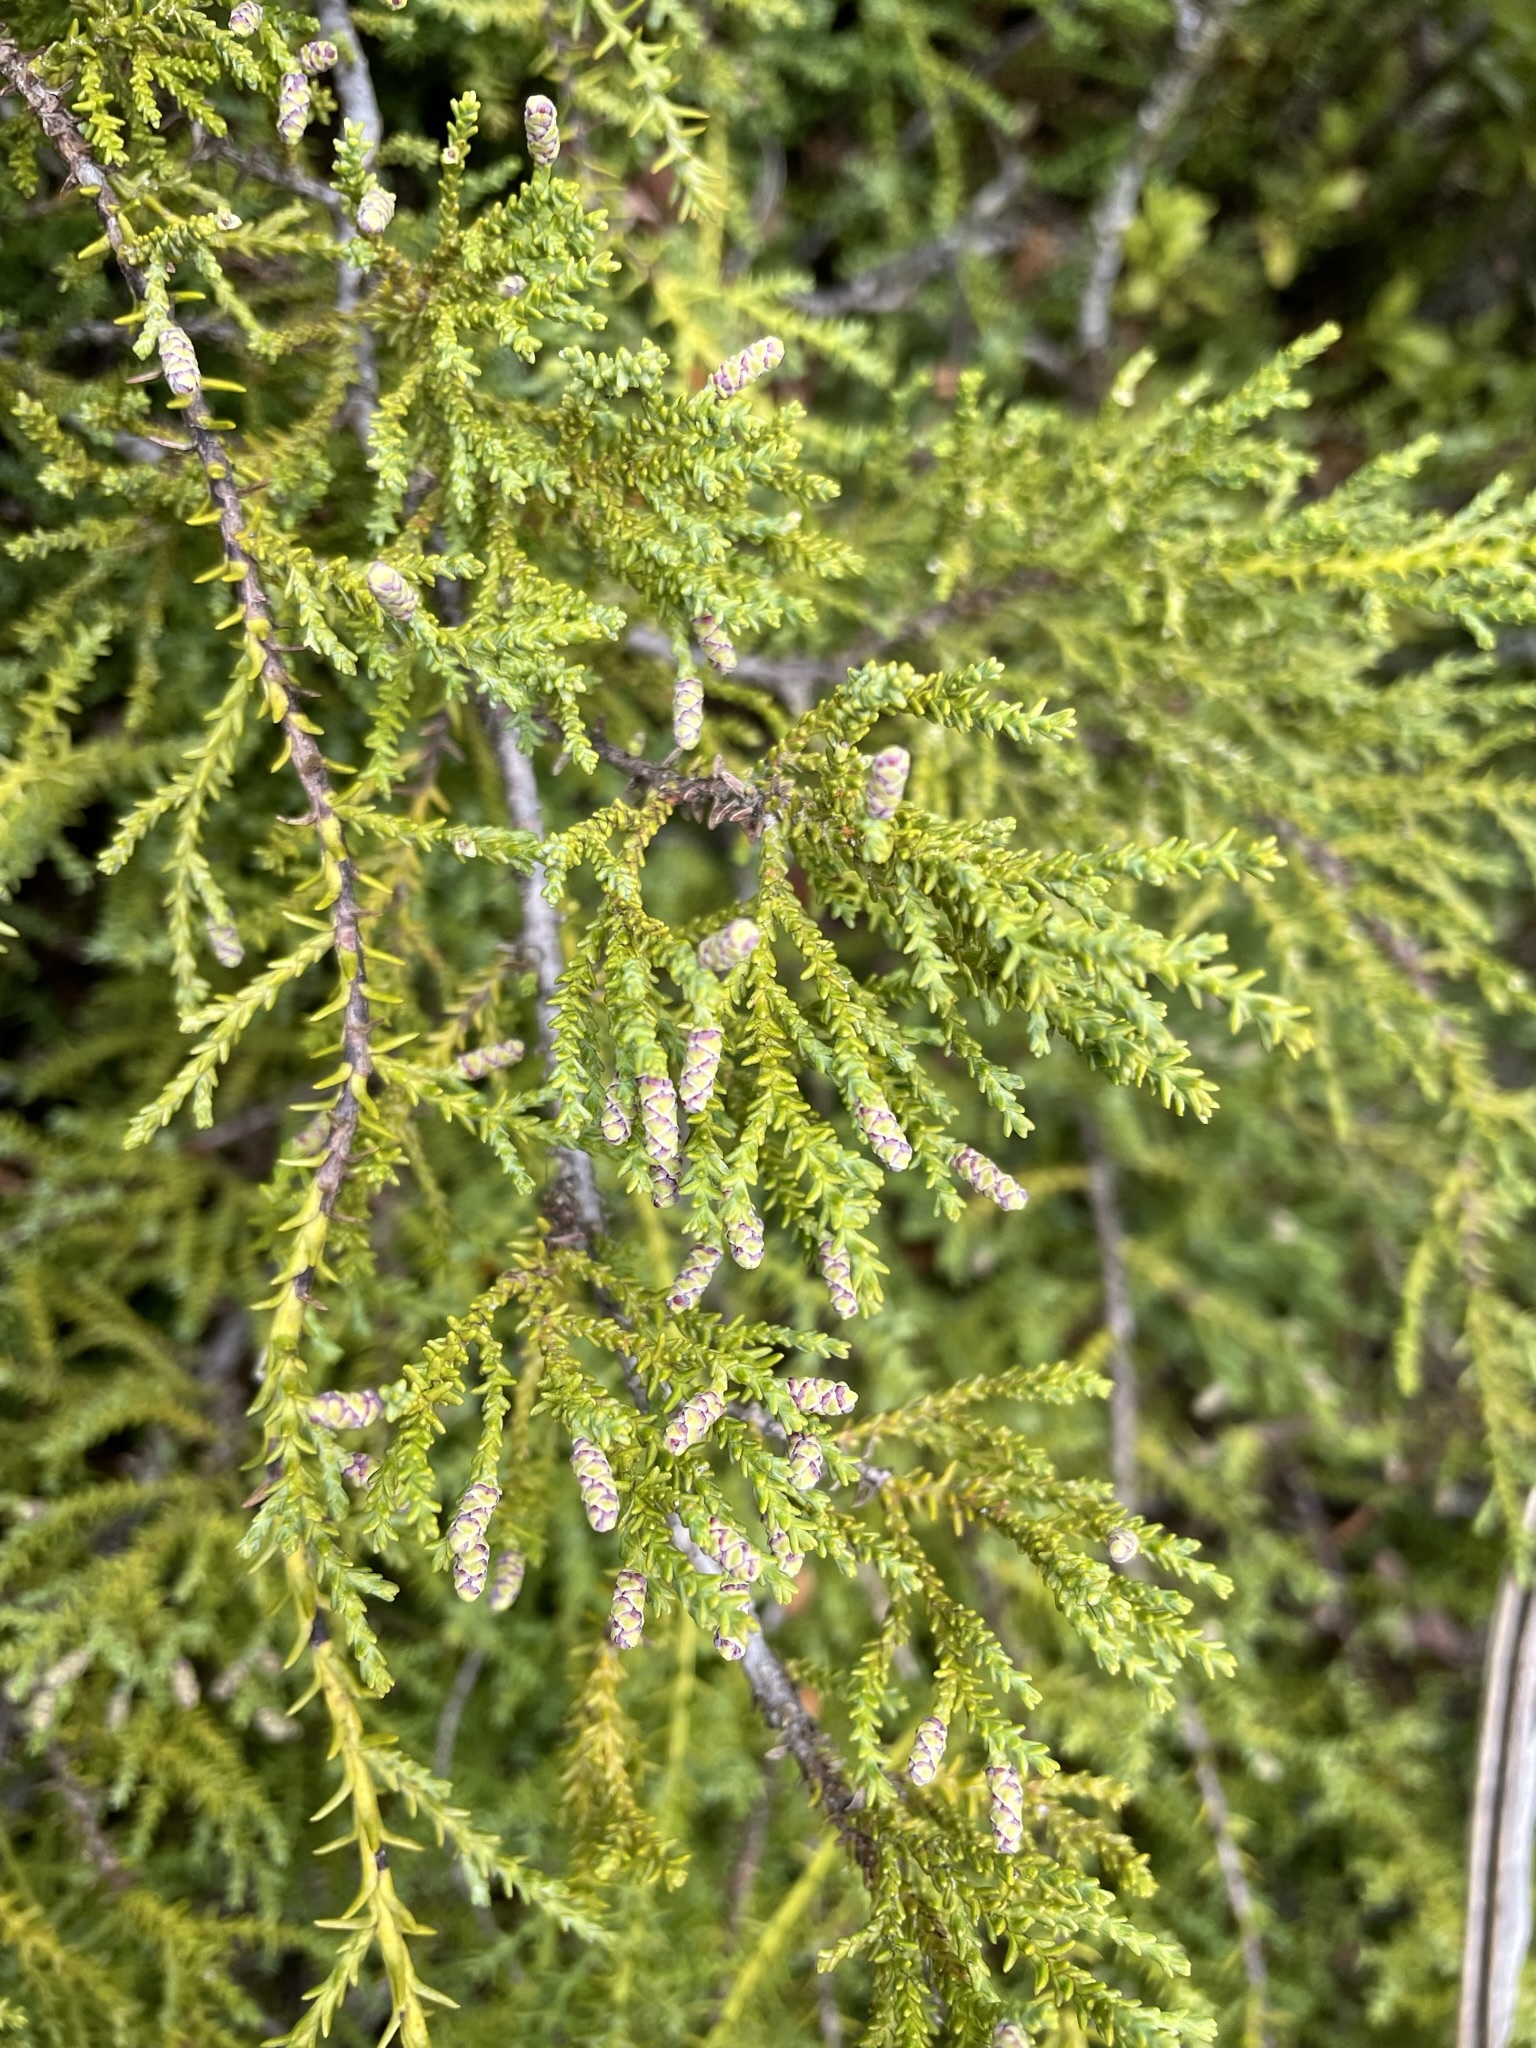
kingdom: Plantae
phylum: Tracheophyta
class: Pinopsida
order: Pinales
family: Podocarpaceae
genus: Lepidothamnus
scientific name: Lepidothamnus intermedius
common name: Yellow silver pine
